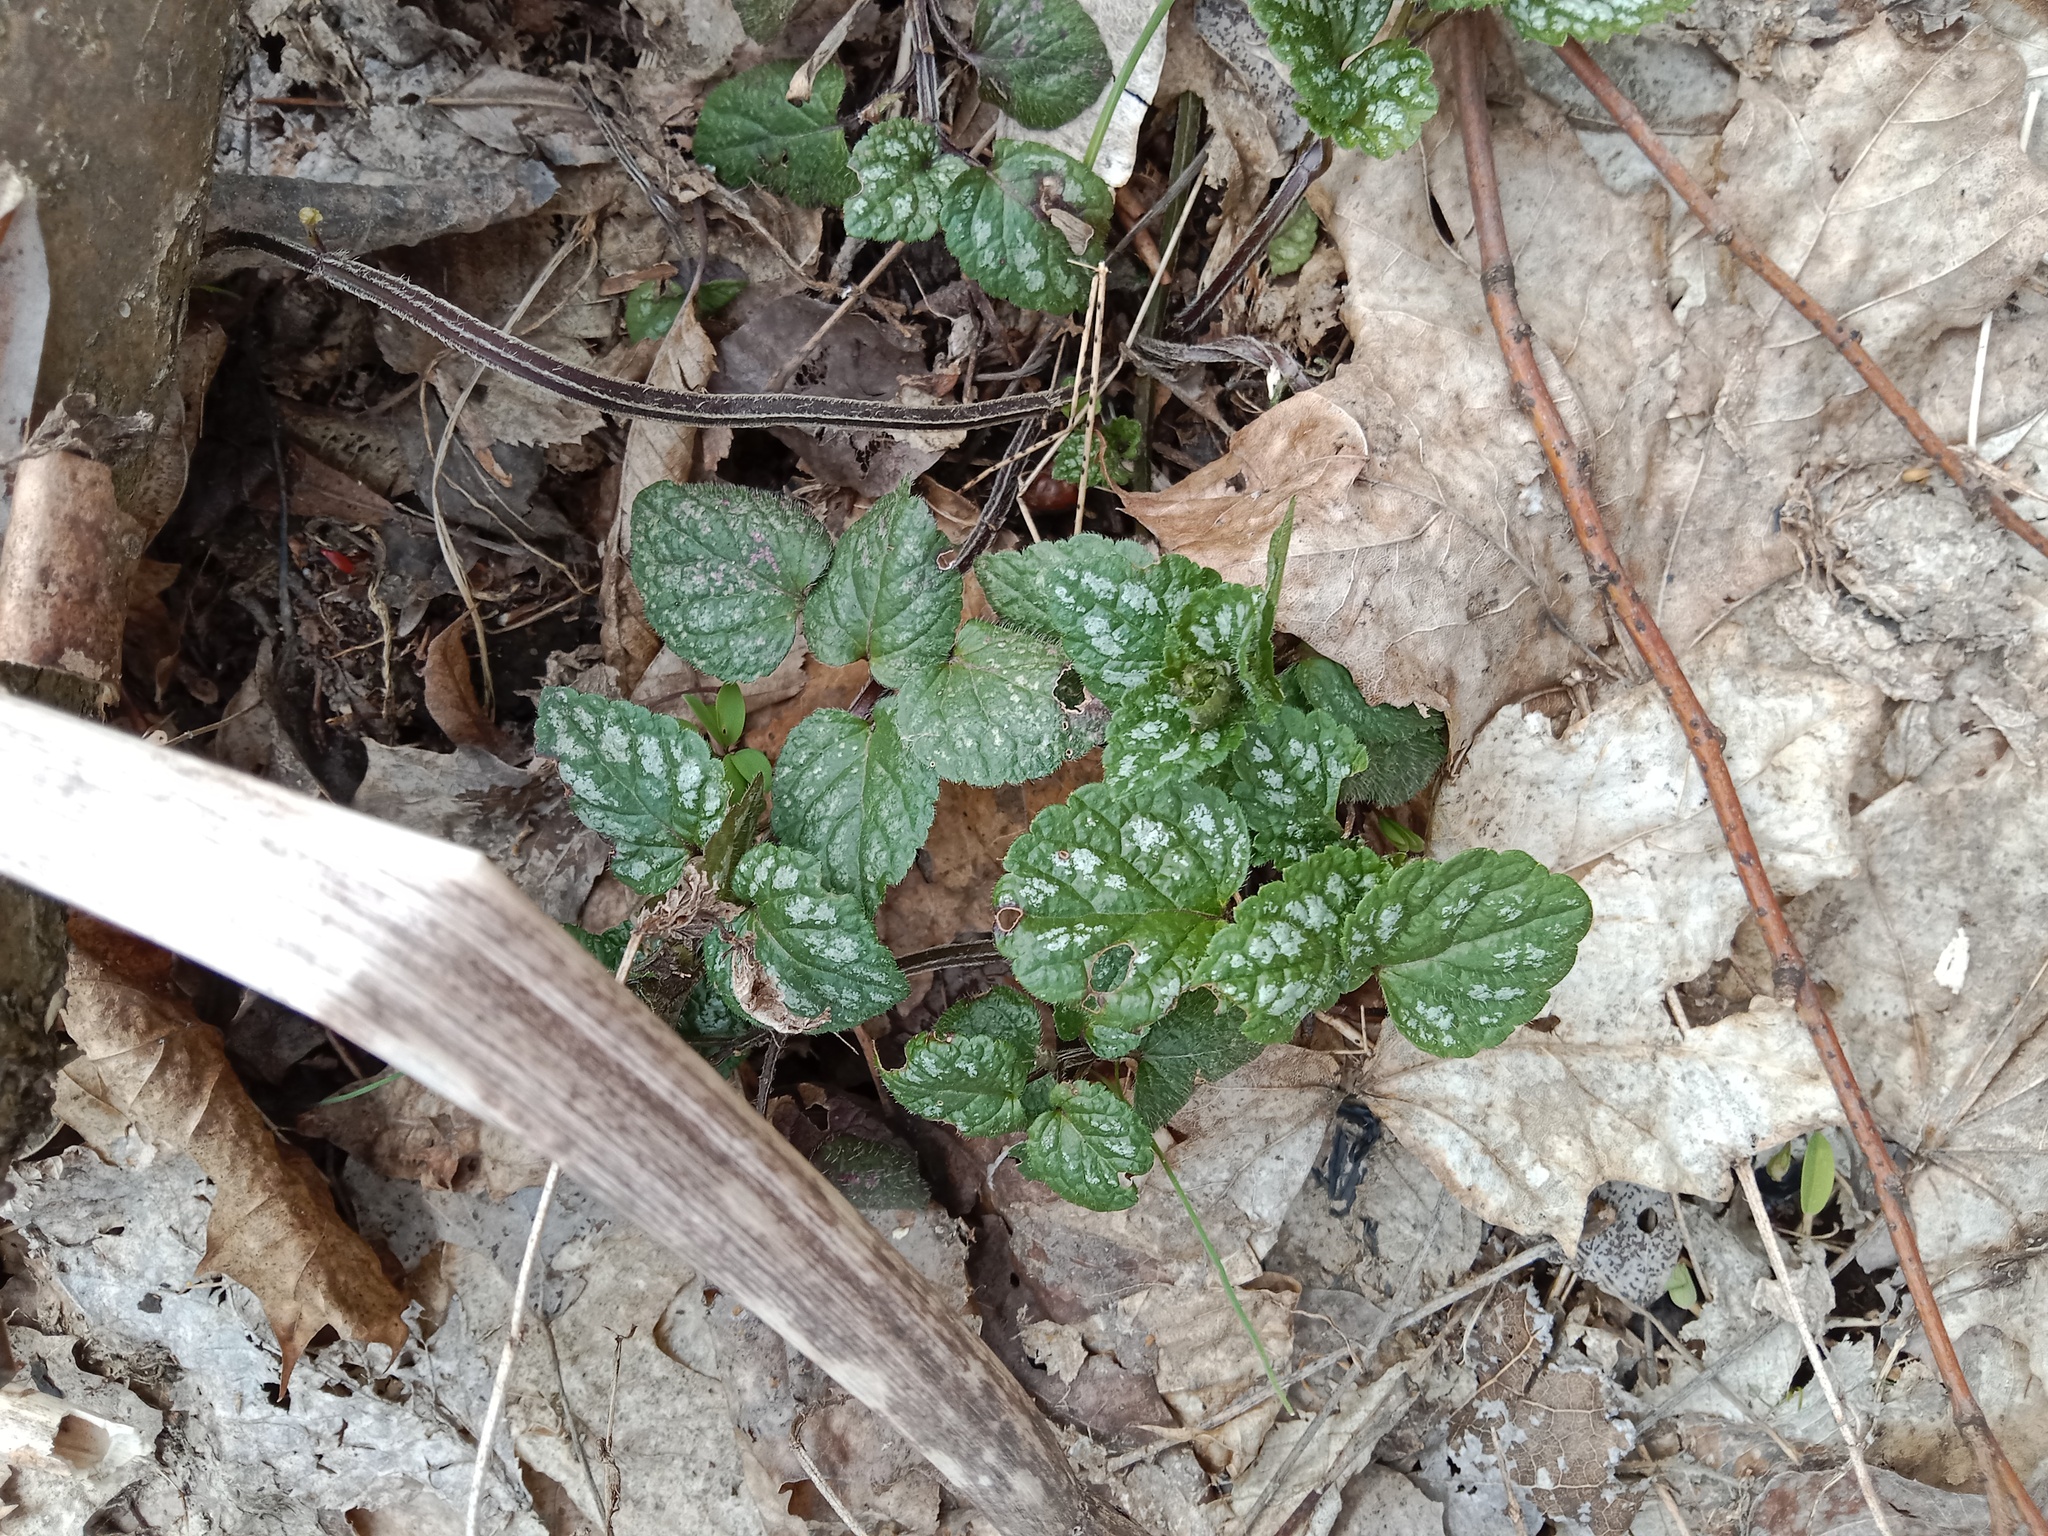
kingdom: Plantae
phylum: Tracheophyta
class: Magnoliopsida
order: Lamiales
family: Lamiaceae
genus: Lamium
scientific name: Lamium galeobdolon
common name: Yellow archangel
